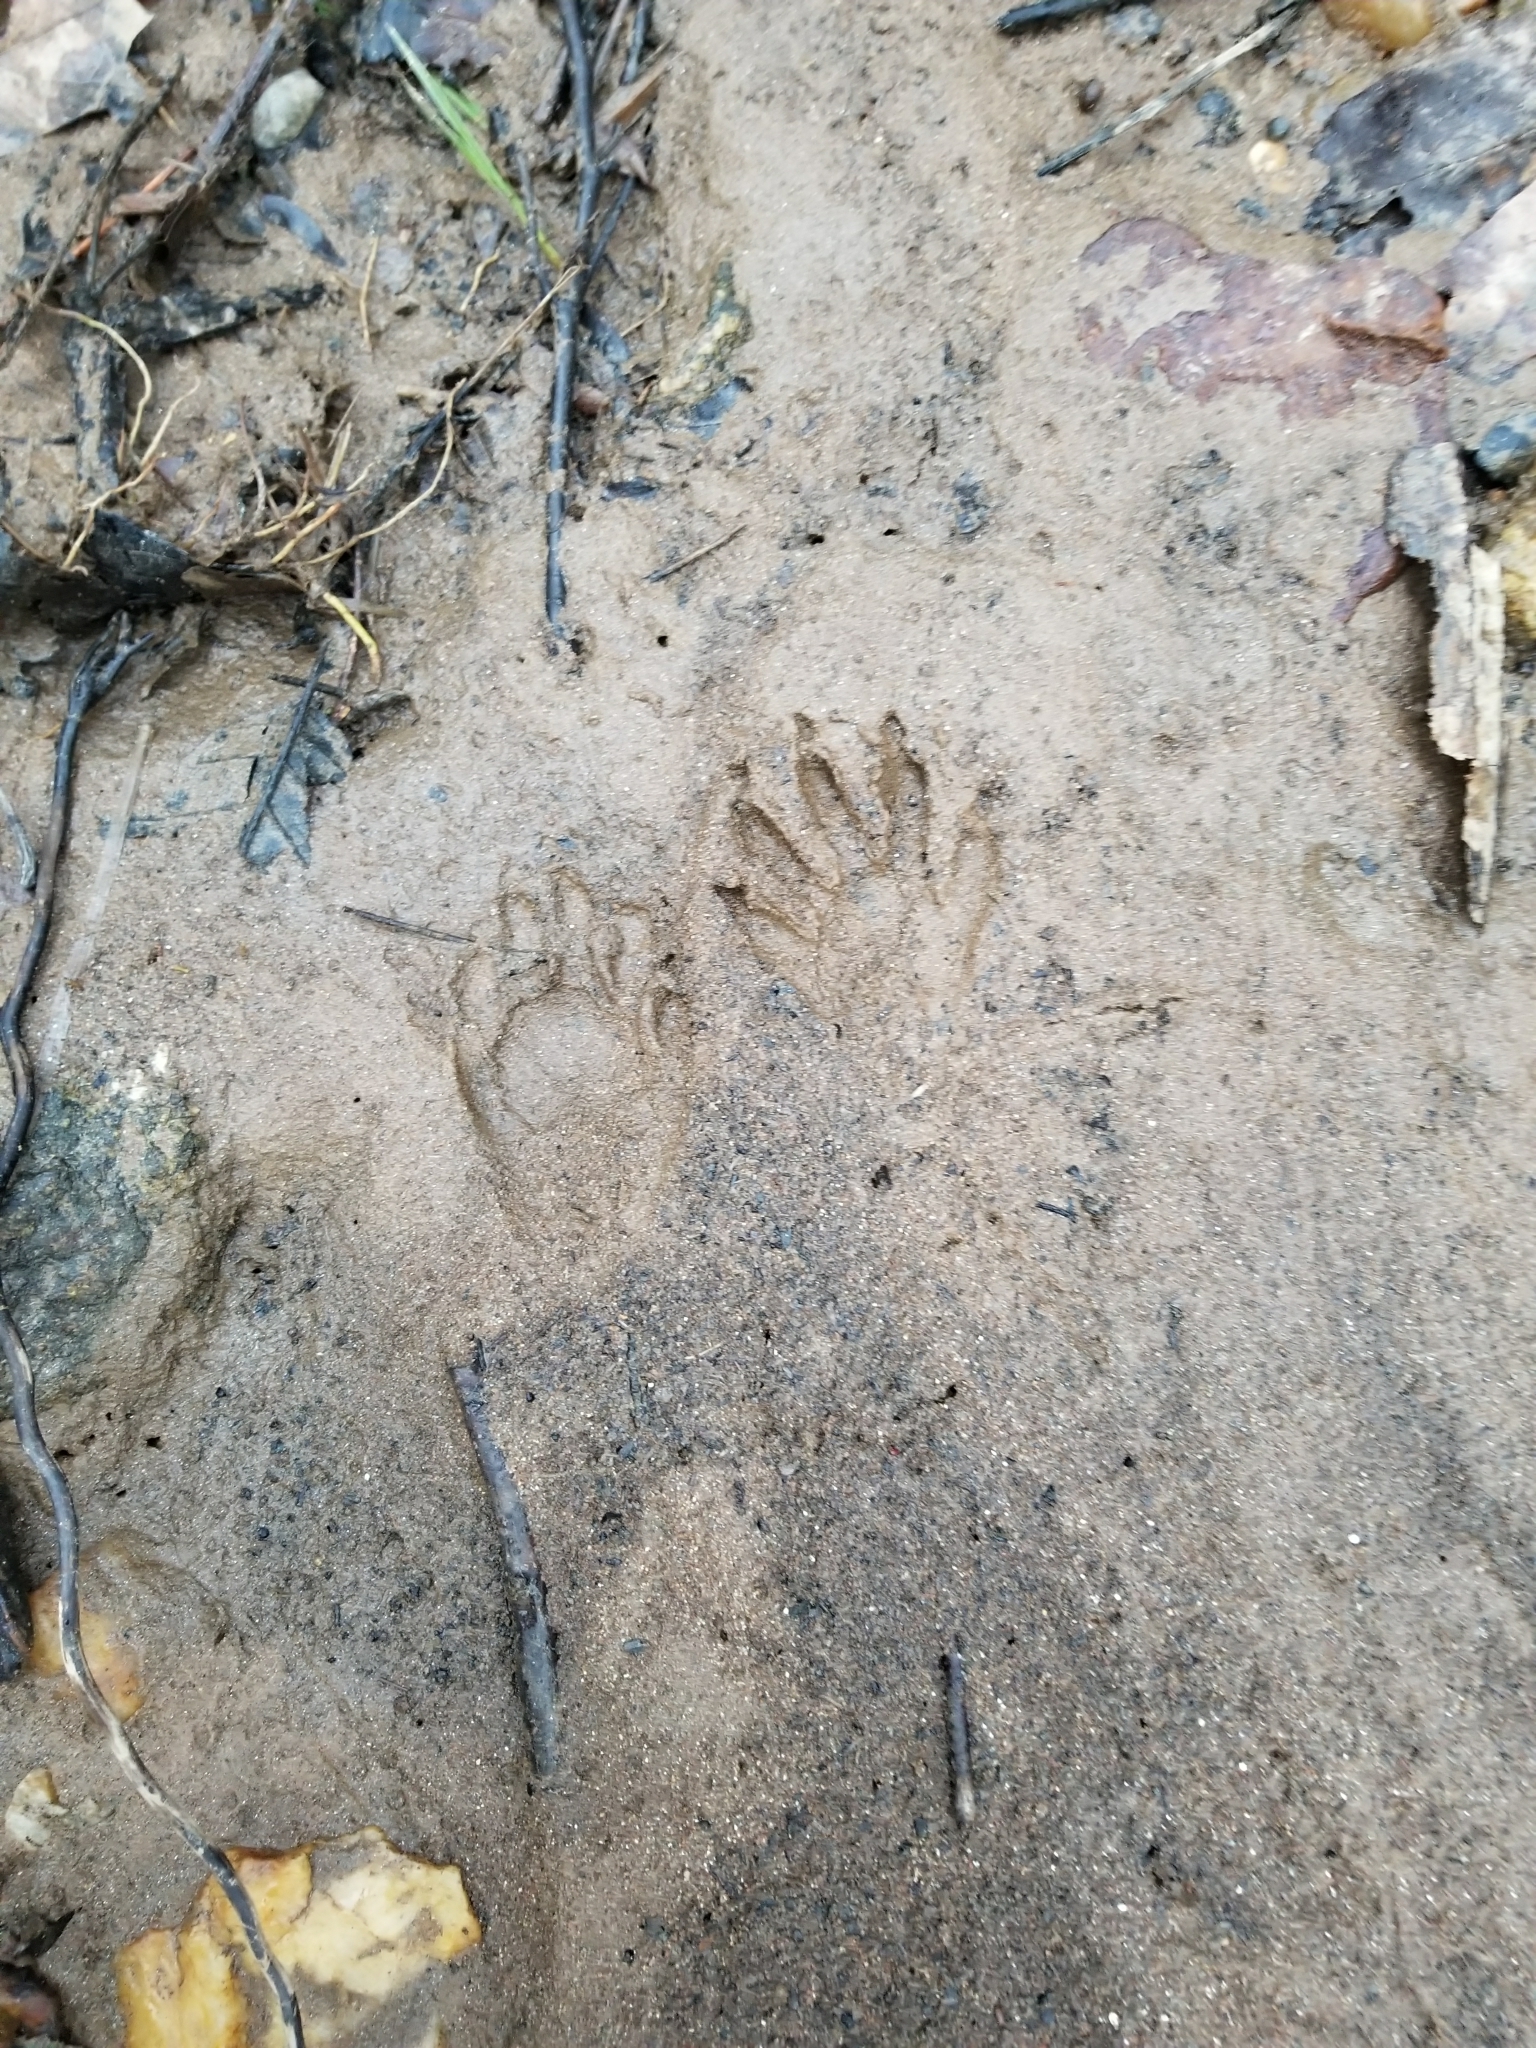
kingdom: Animalia
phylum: Chordata
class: Mammalia
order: Carnivora
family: Procyonidae
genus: Procyon
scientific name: Procyon lotor
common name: Raccoon
